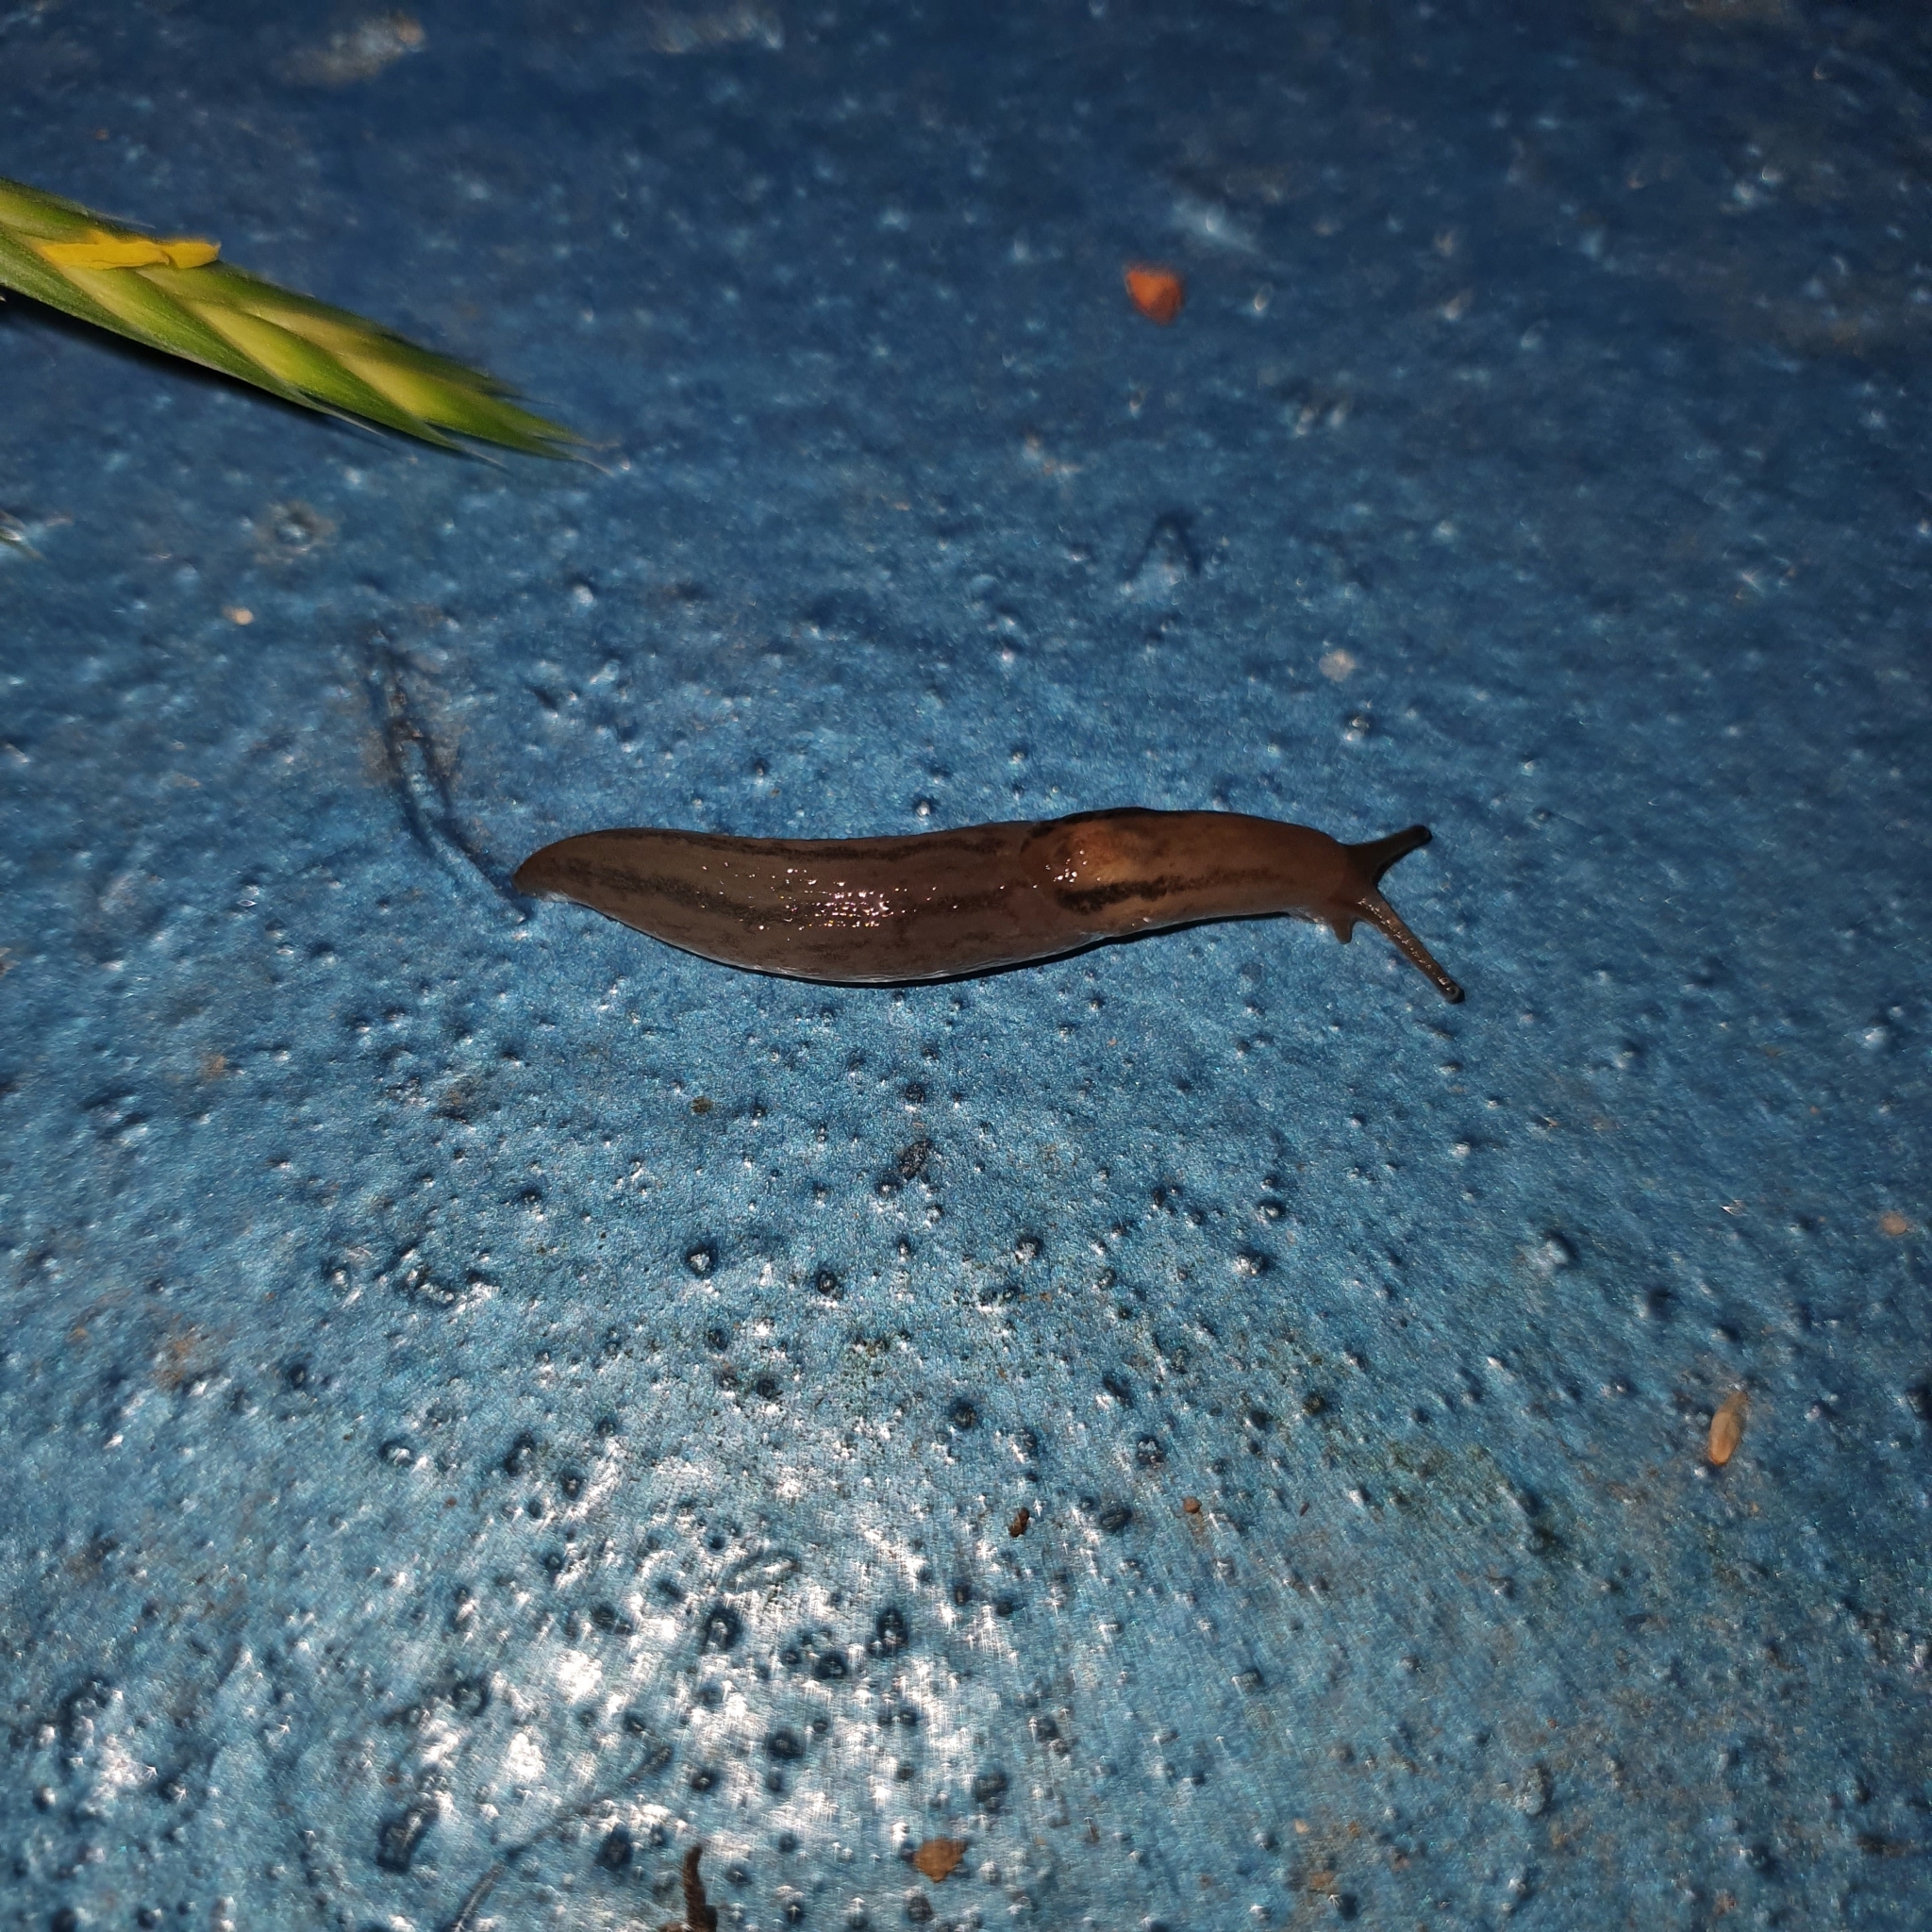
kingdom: Animalia
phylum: Mollusca
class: Gastropoda
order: Stylommatophora
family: Limacidae
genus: Ambigolimax
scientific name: Ambigolimax
